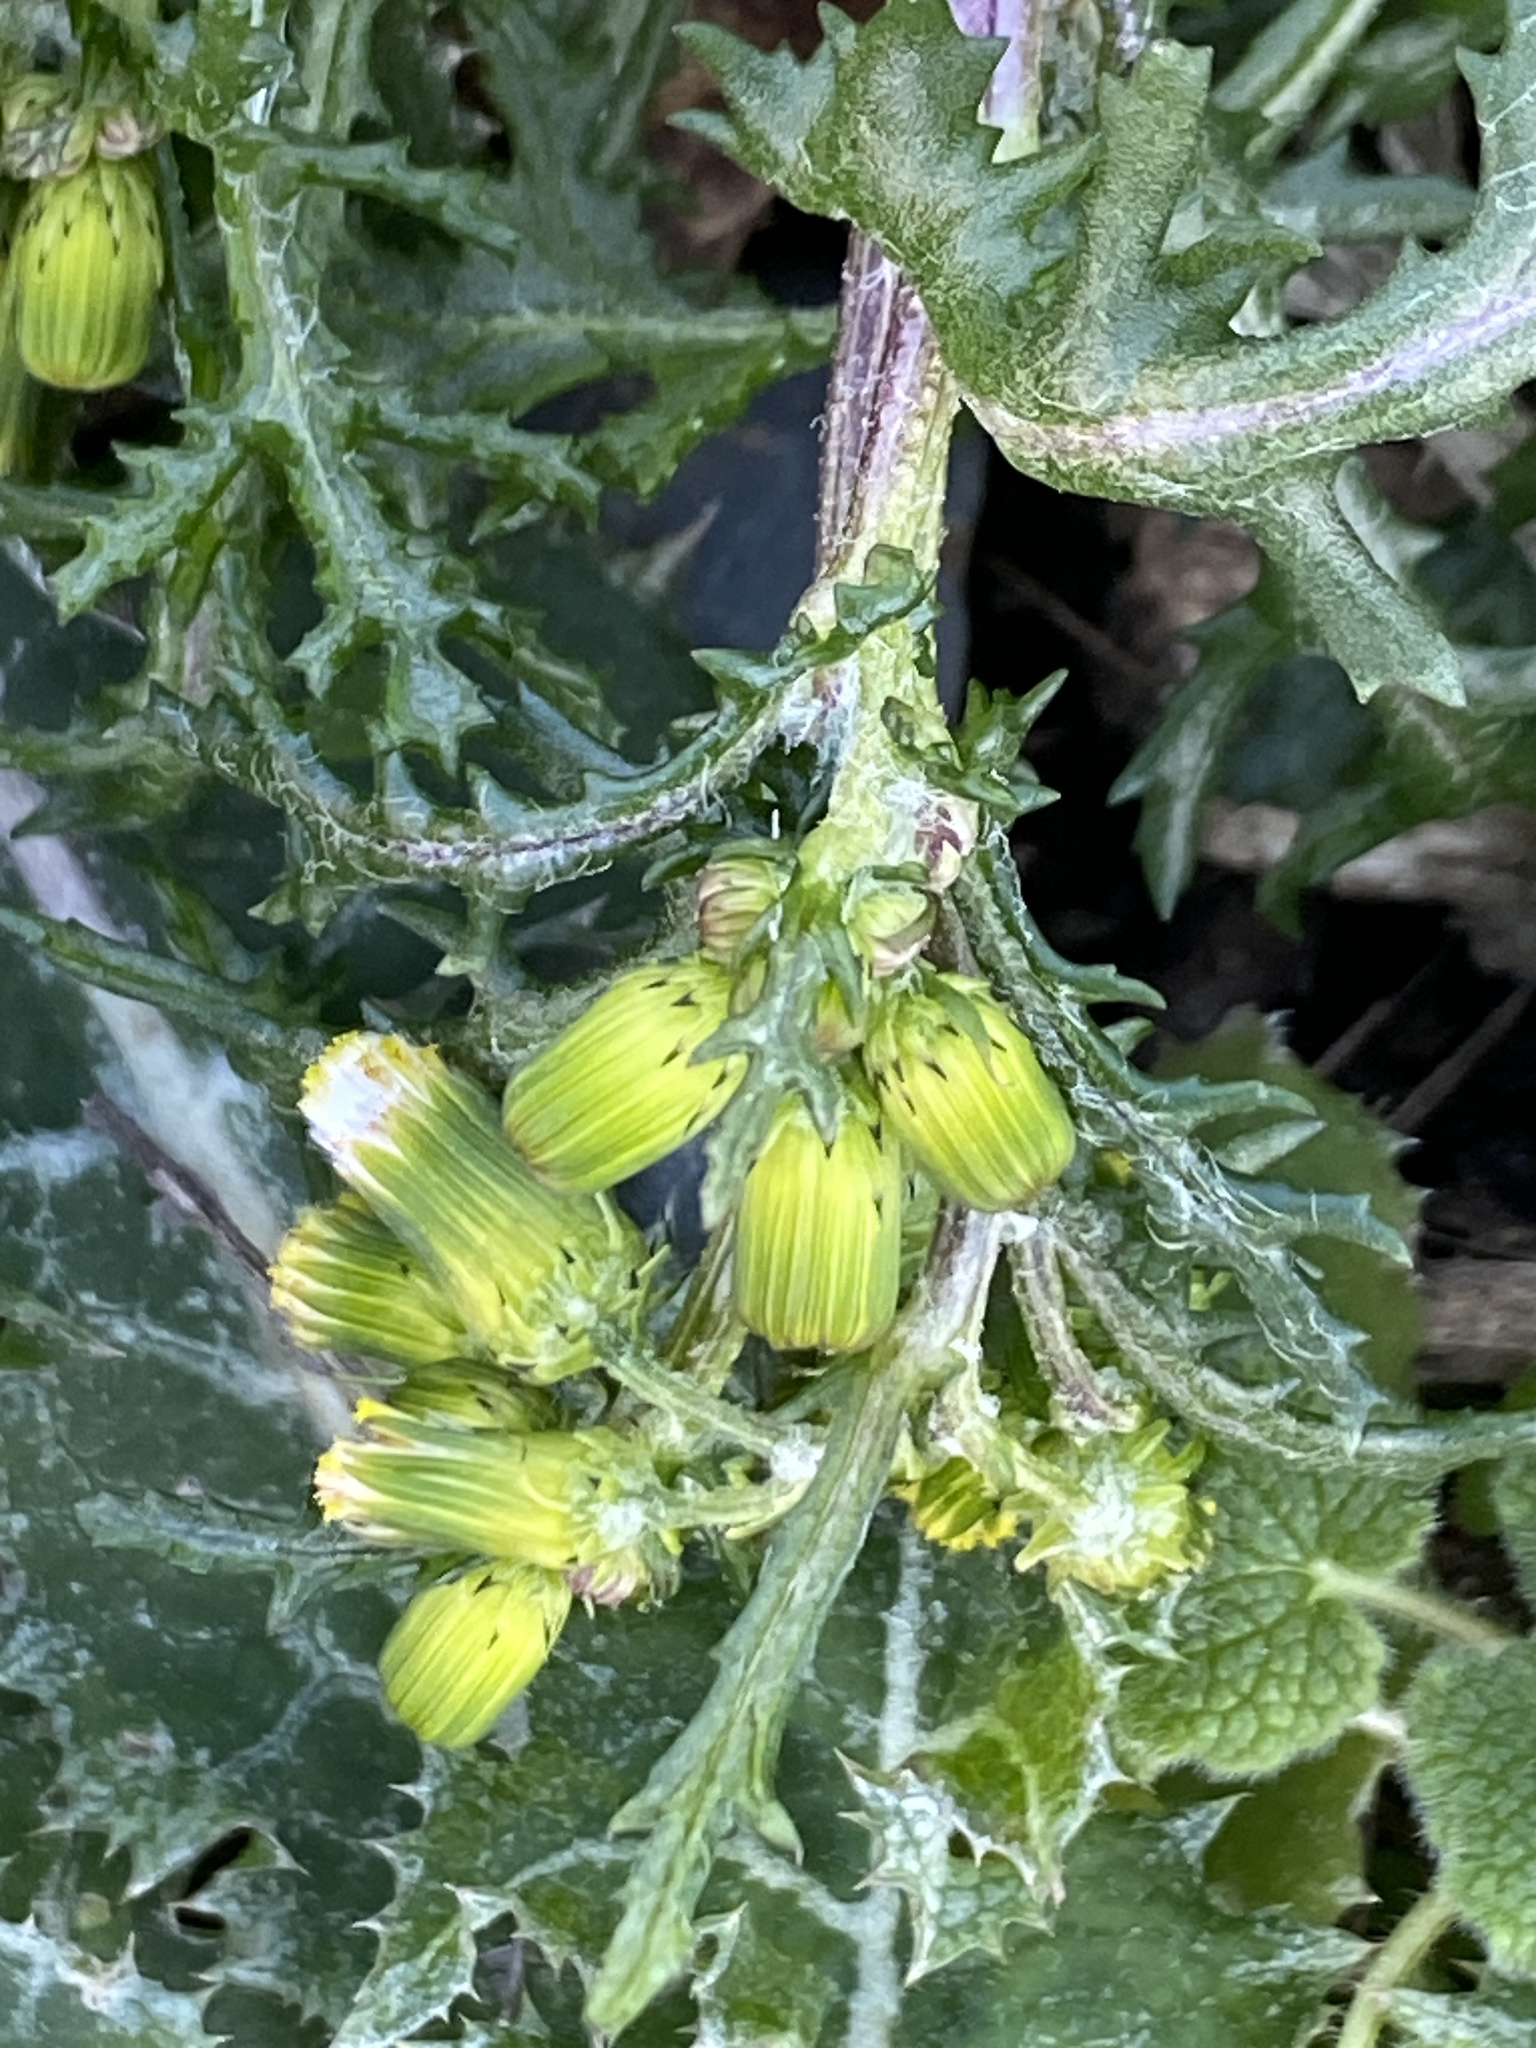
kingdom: Plantae
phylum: Tracheophyta
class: Magnoliopsida
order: Asterales
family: Asteraceae
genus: Senecio
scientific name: Senecio vulgaris
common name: Old-man-in-the-spring
